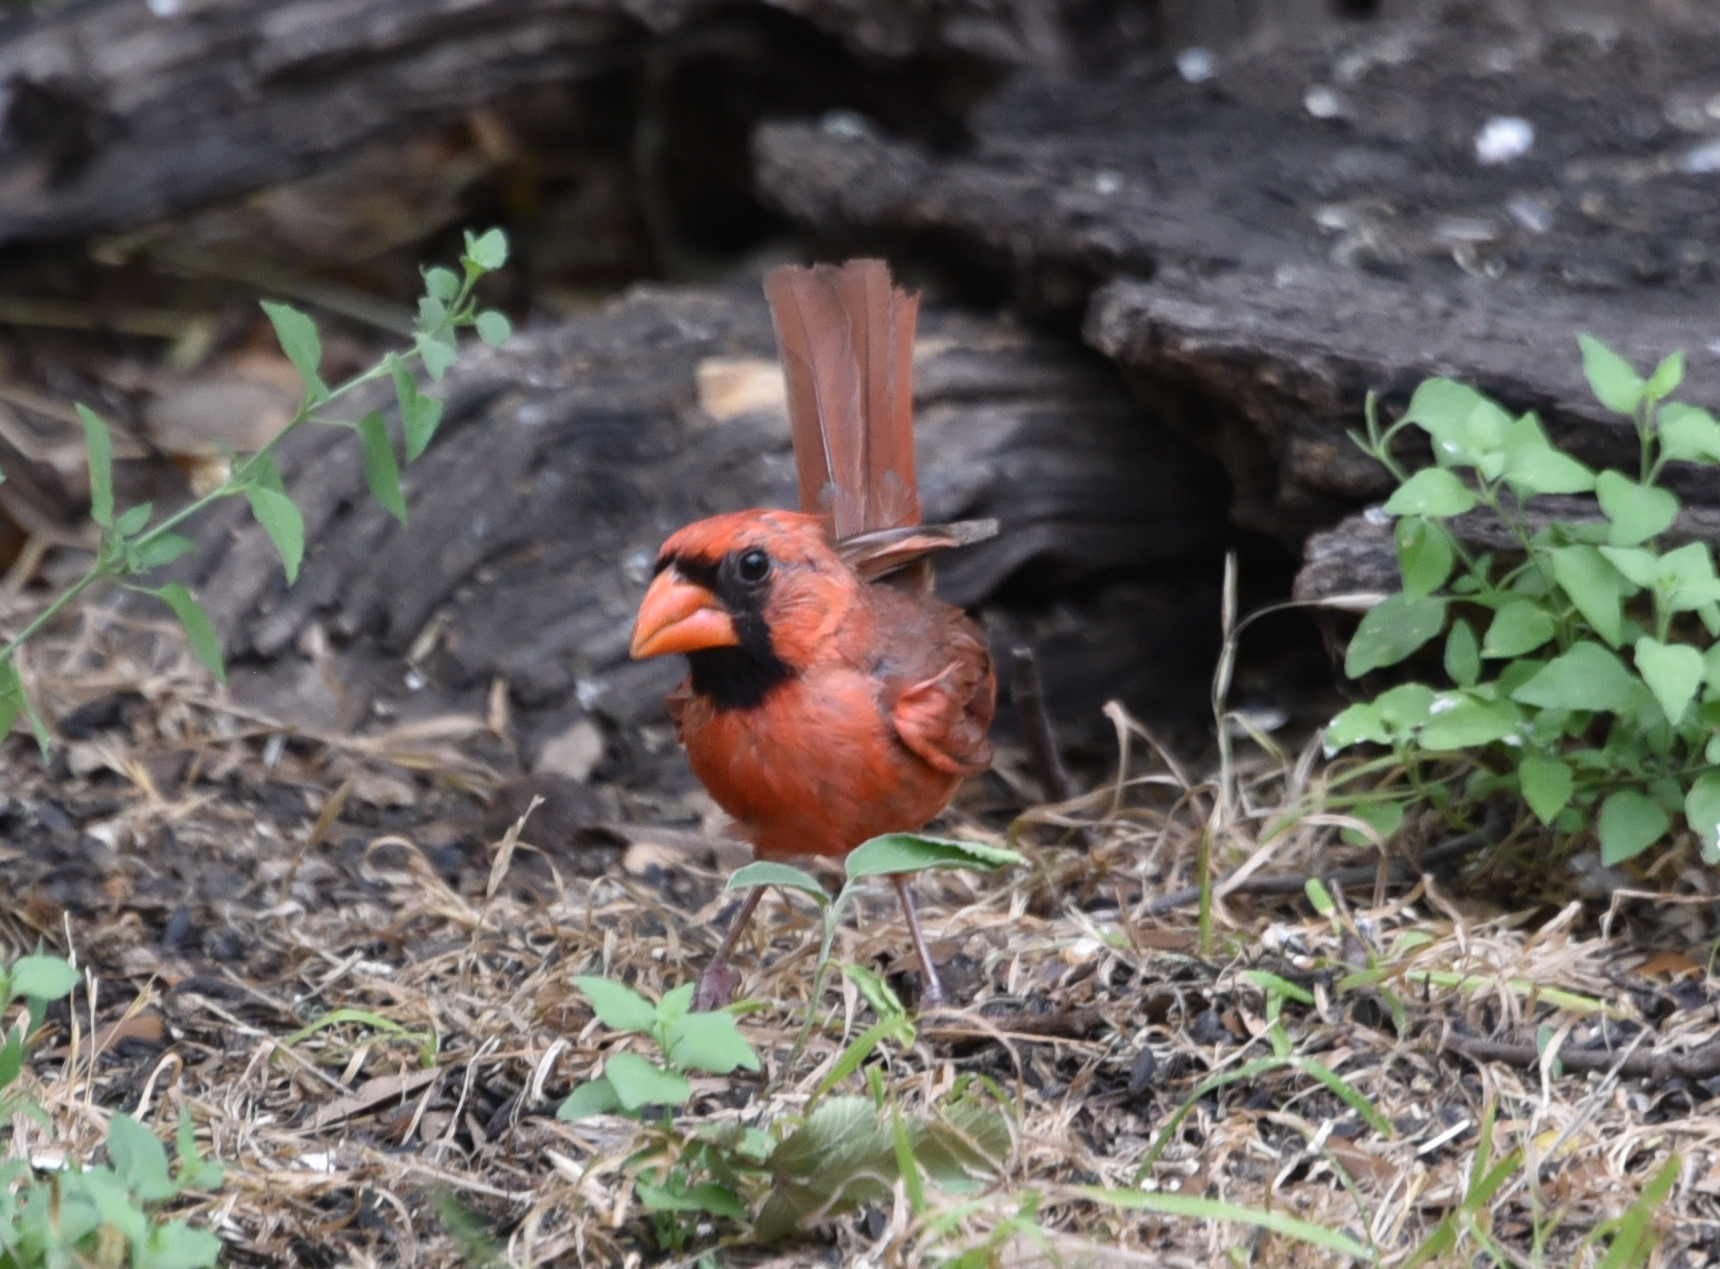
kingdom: Animalia
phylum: Chordata
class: Aves
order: Passeriformes
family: Cardinalidae
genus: Cardinalis
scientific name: Cardinalis cardinalis
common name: Northern cardinal
